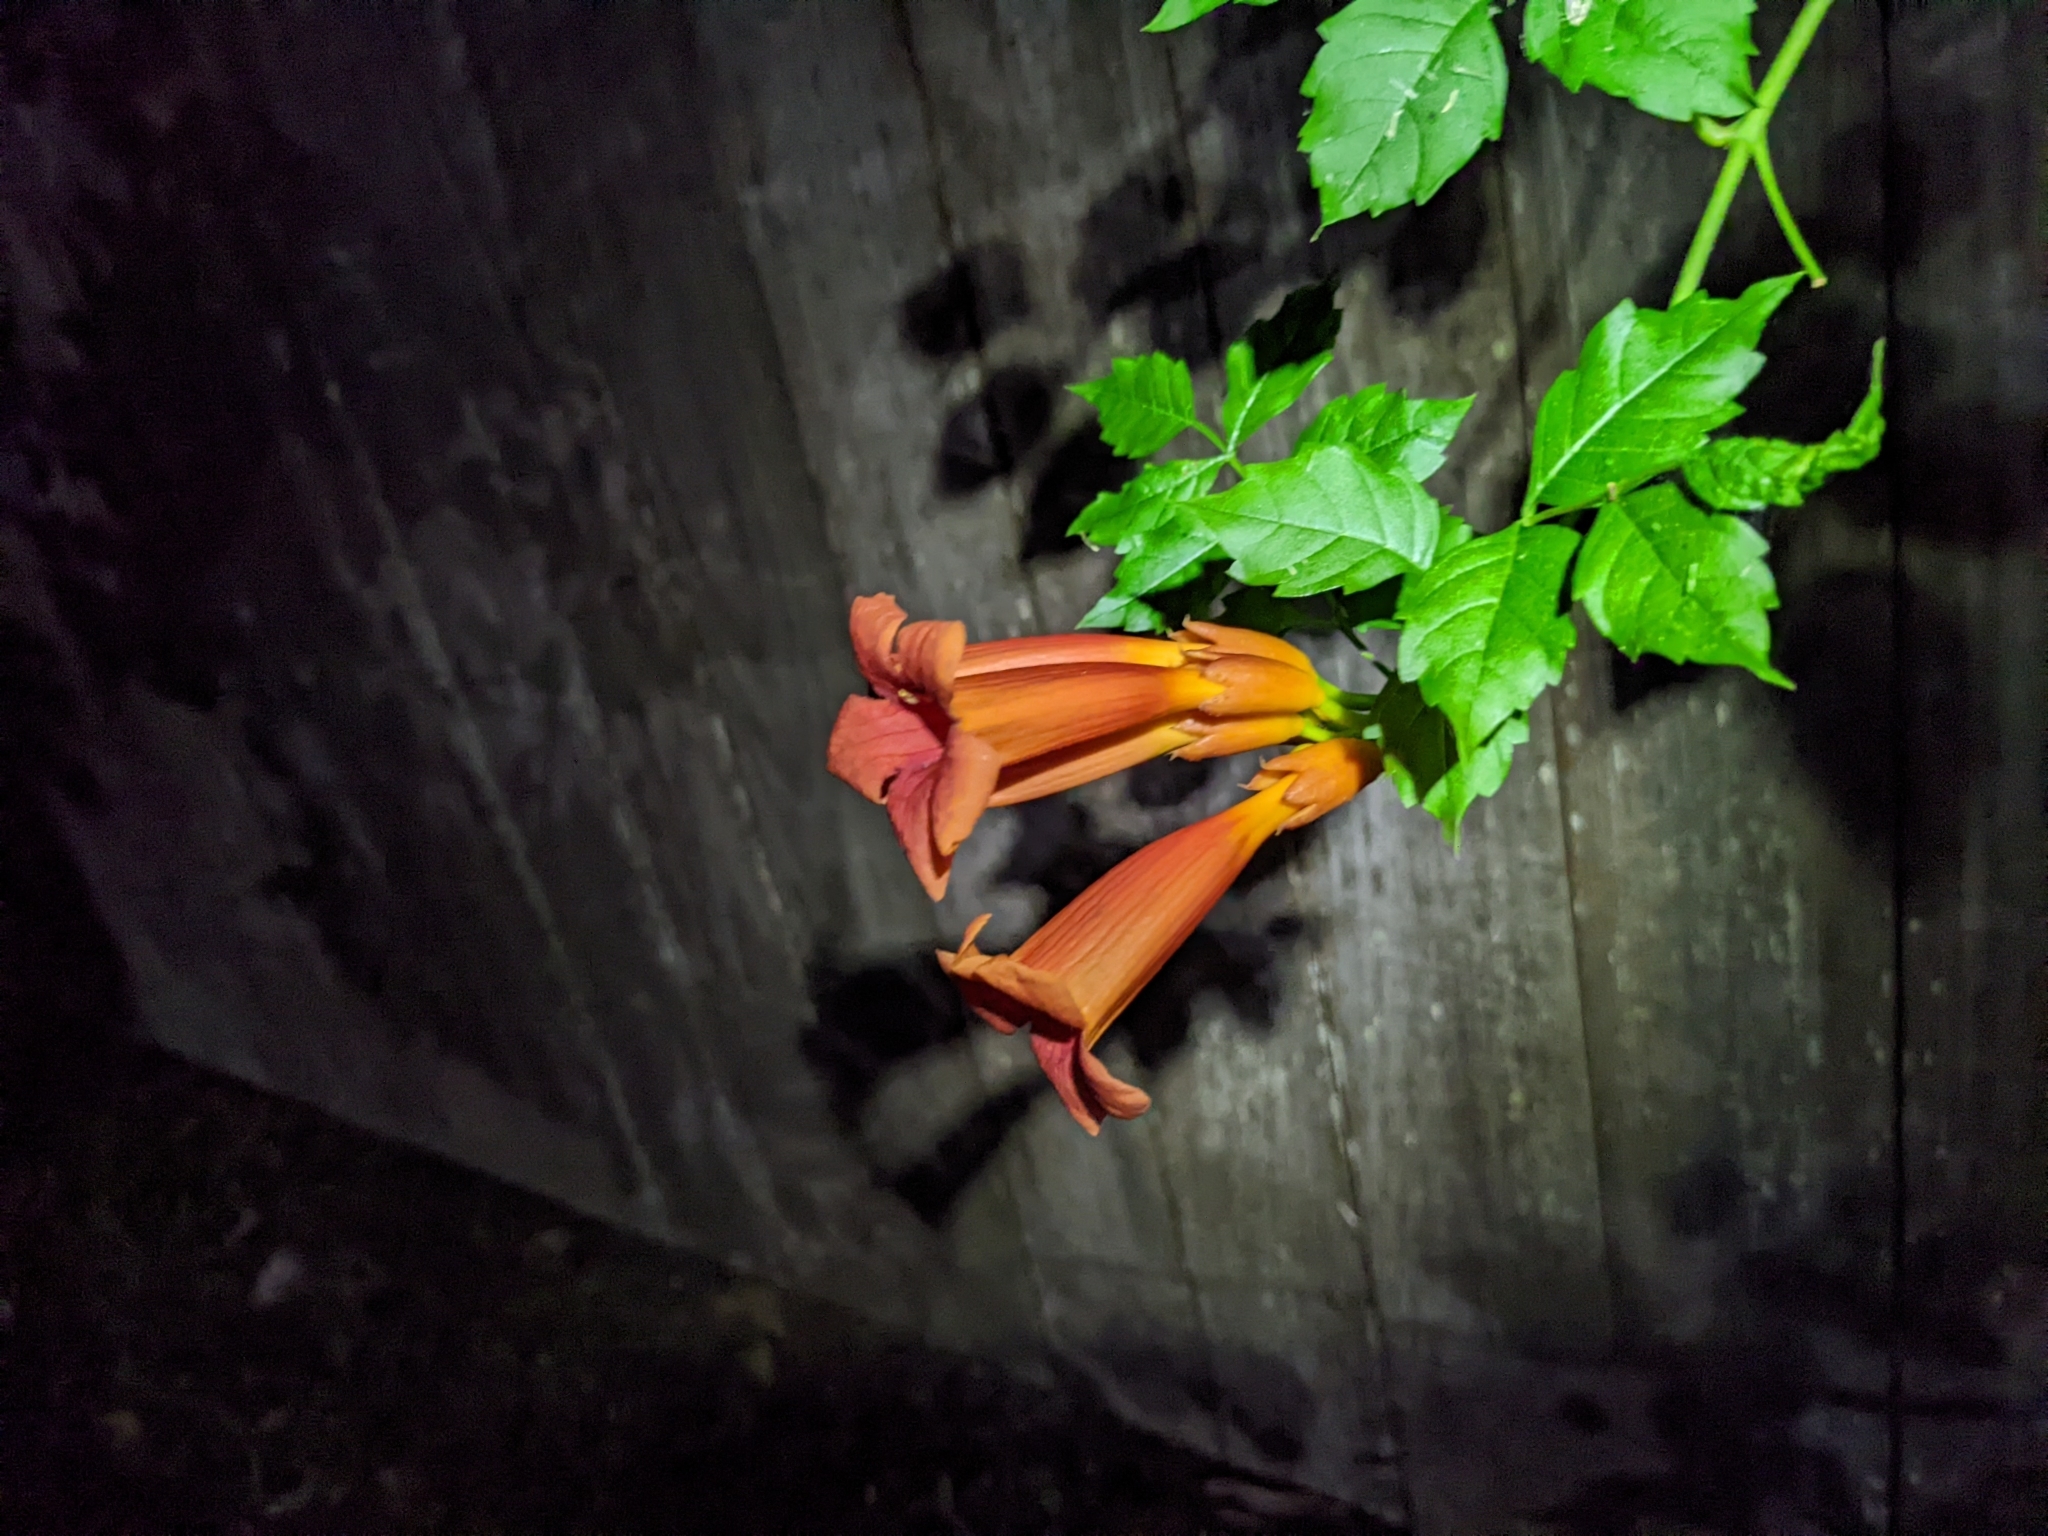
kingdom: Plantae
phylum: Tracheophyta
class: Magnoliopsida
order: Lamiales
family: Bignoniaceae
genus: Campsis
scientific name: Campsis radicans
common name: Trumpet-creeper
